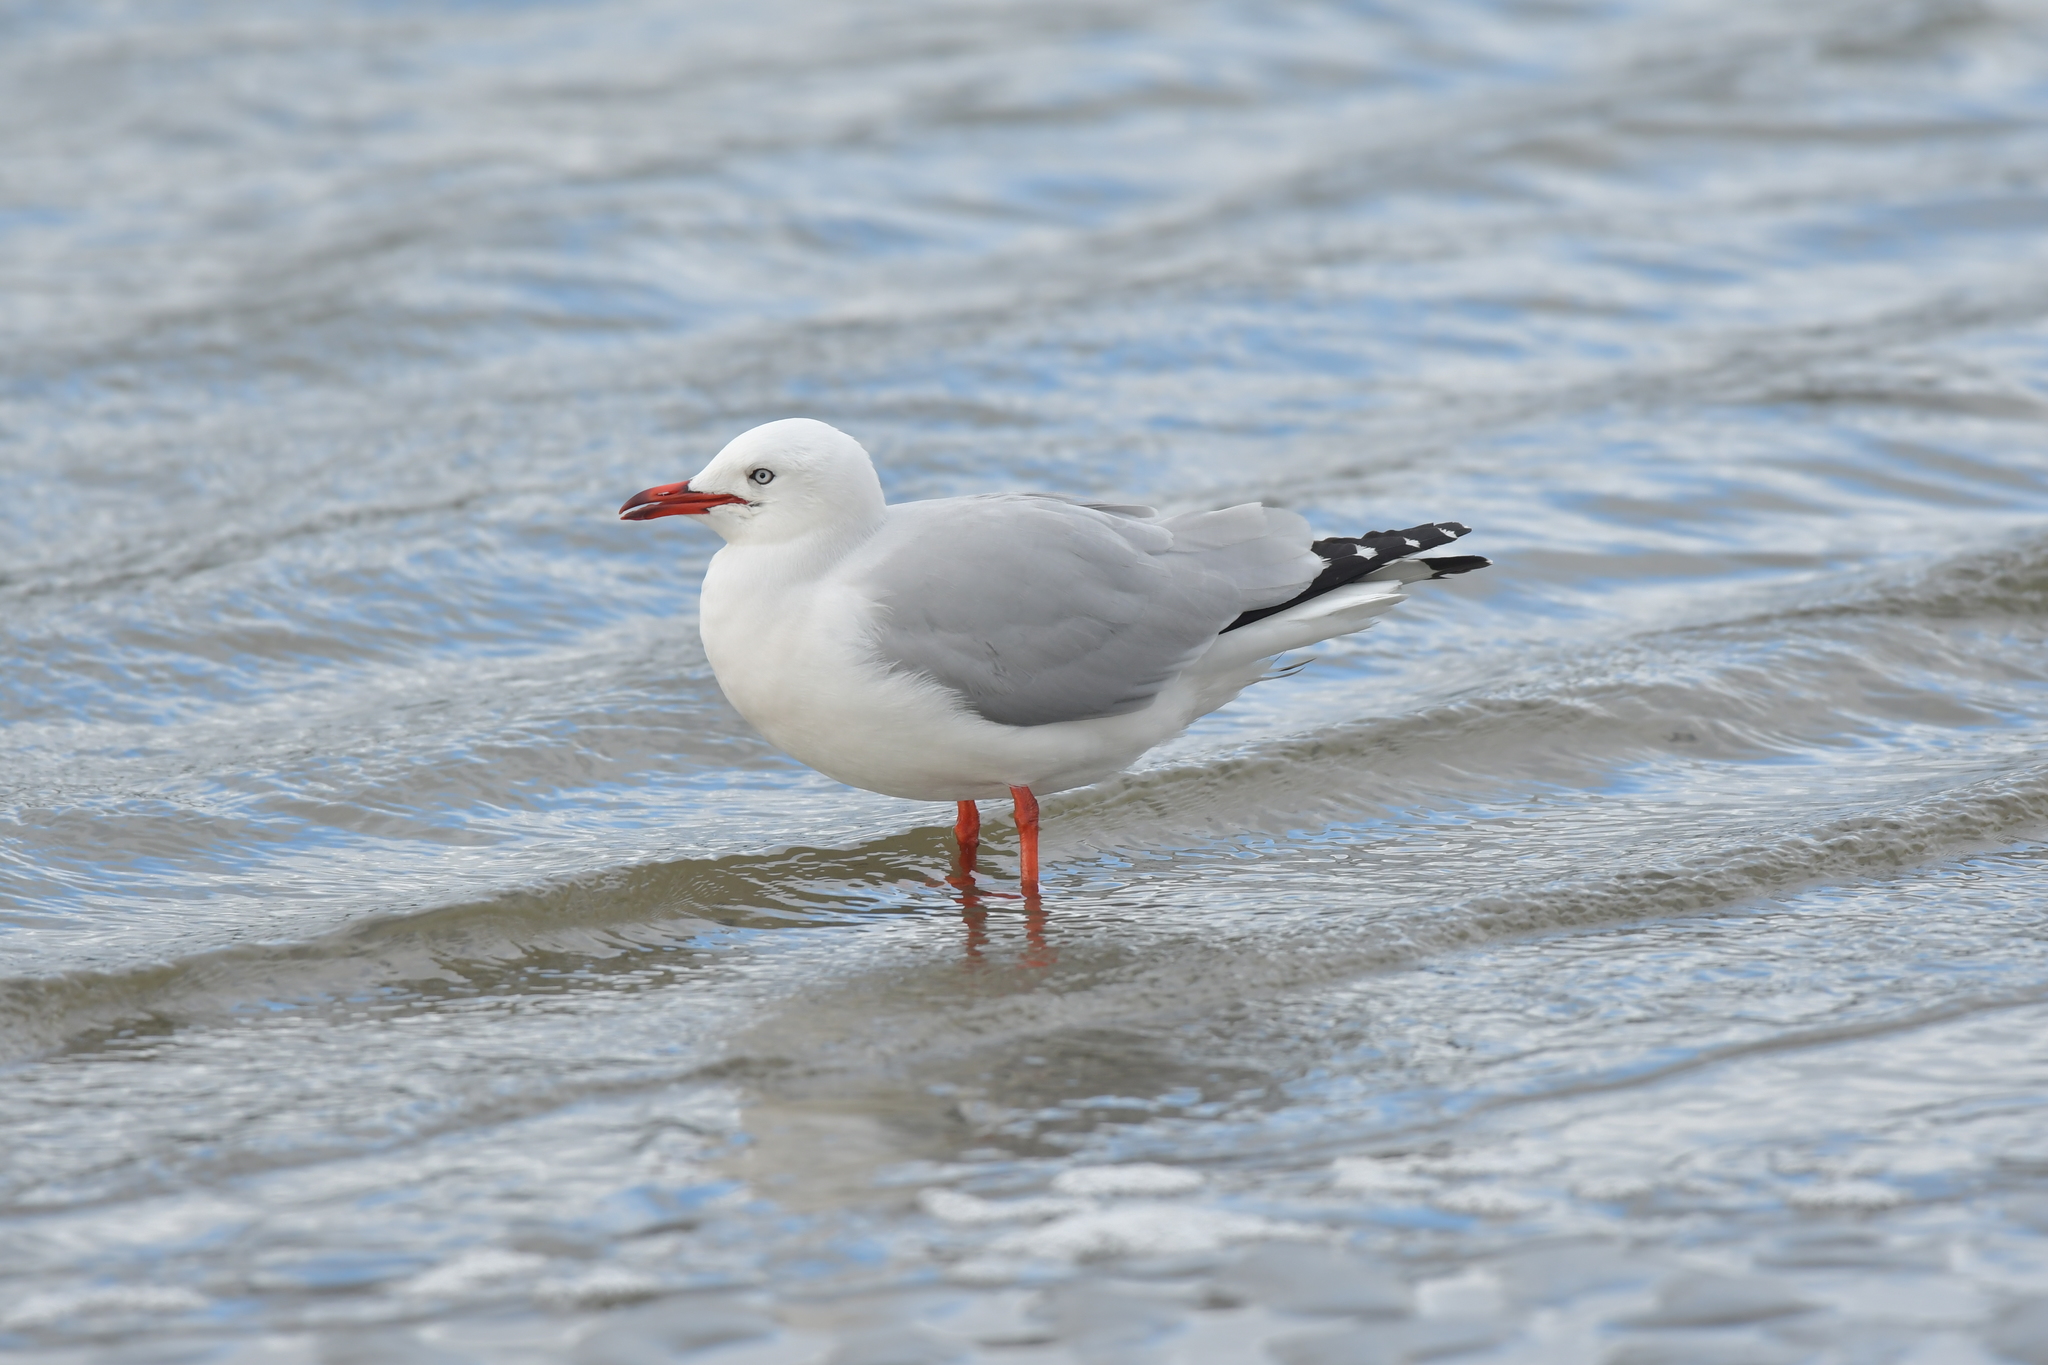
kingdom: Animalia
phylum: Chordata
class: Aves
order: Charadriiformes
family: Laridae
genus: Chroicocephalus
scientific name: Chroicocephalus novaehollandiae
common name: Silver gull
